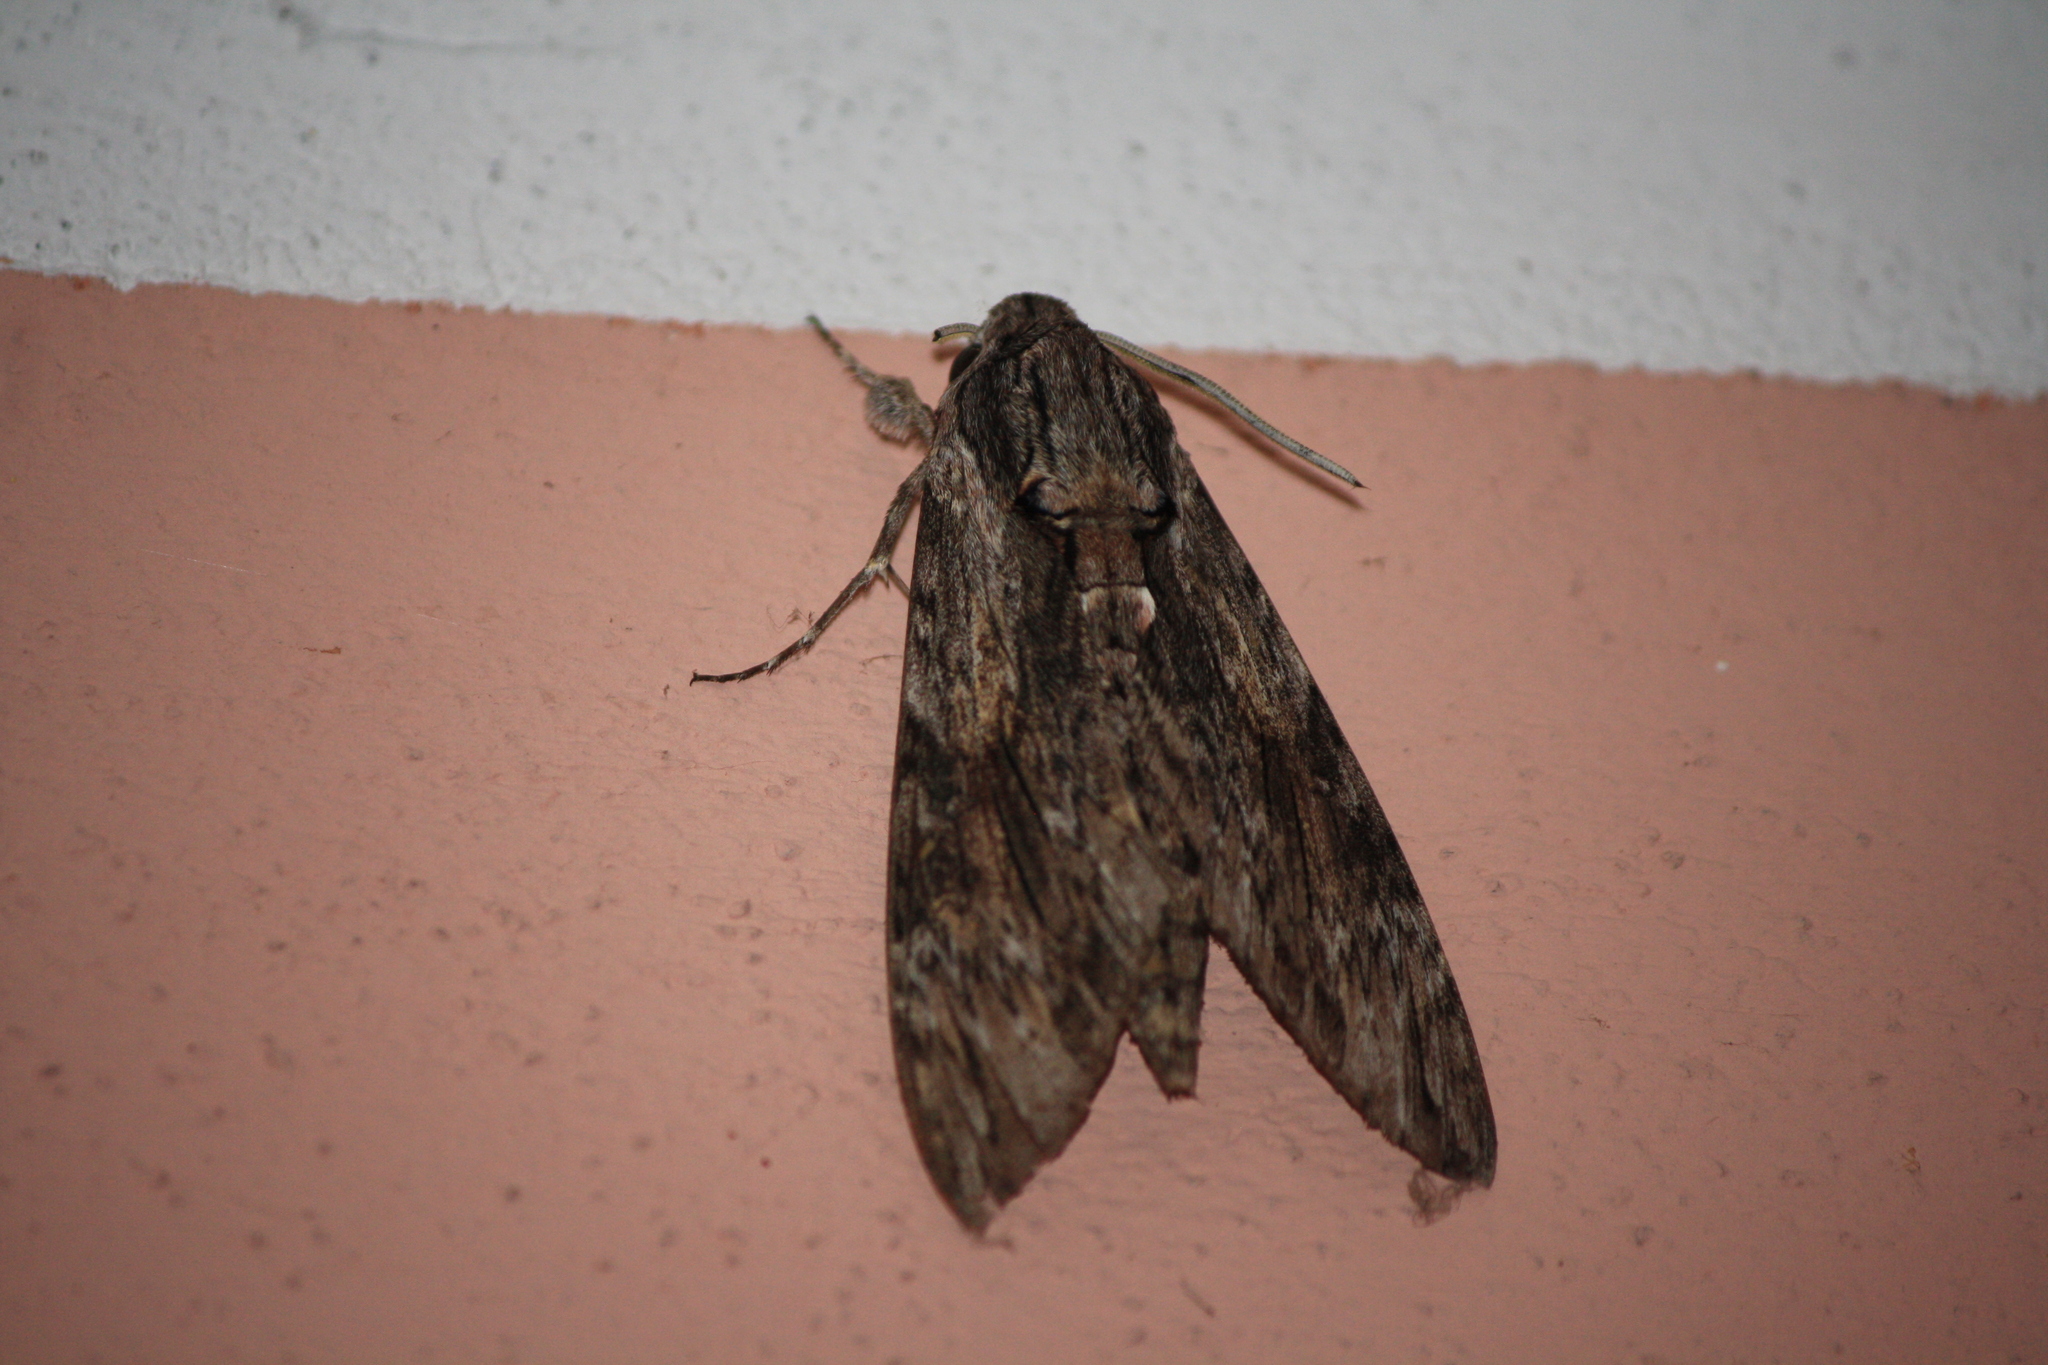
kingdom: Animalia
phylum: Arthropoda
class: Insecta
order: Lepidoptera
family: Sphingidae
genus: Agrius
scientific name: Agrius convolvuli
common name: Convolvulus hawkmoth
